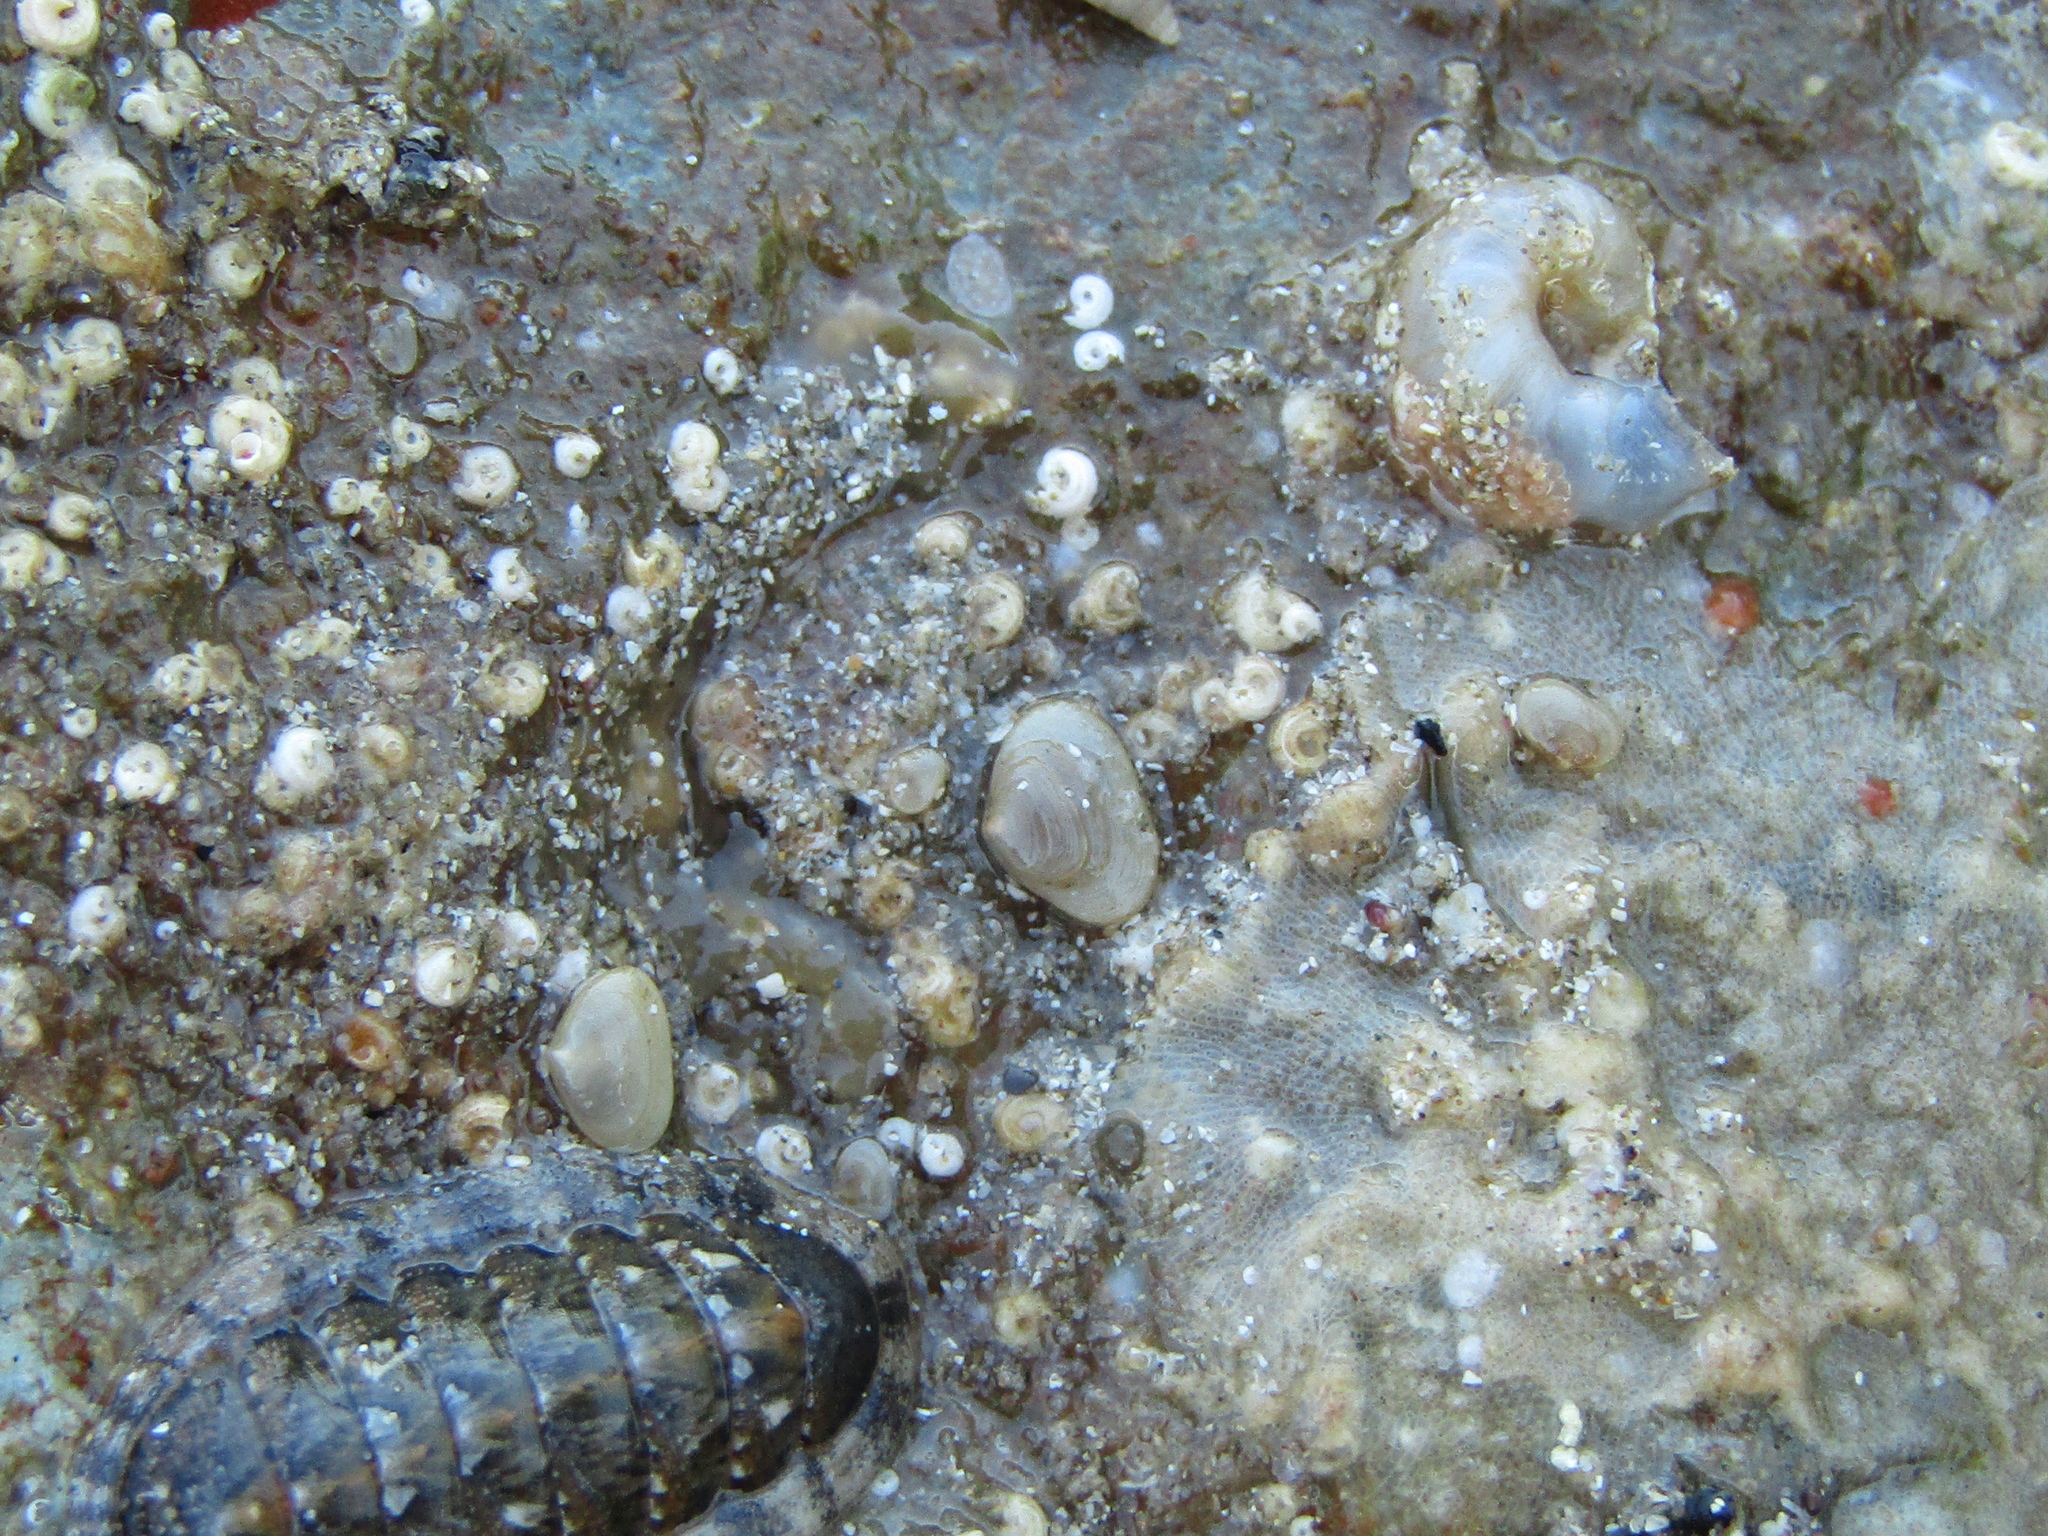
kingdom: Animalia
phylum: Mollusca
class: Bivalvia
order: Galeommatida
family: Lasaeidae
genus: Borniola
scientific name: Borniola reniformis
